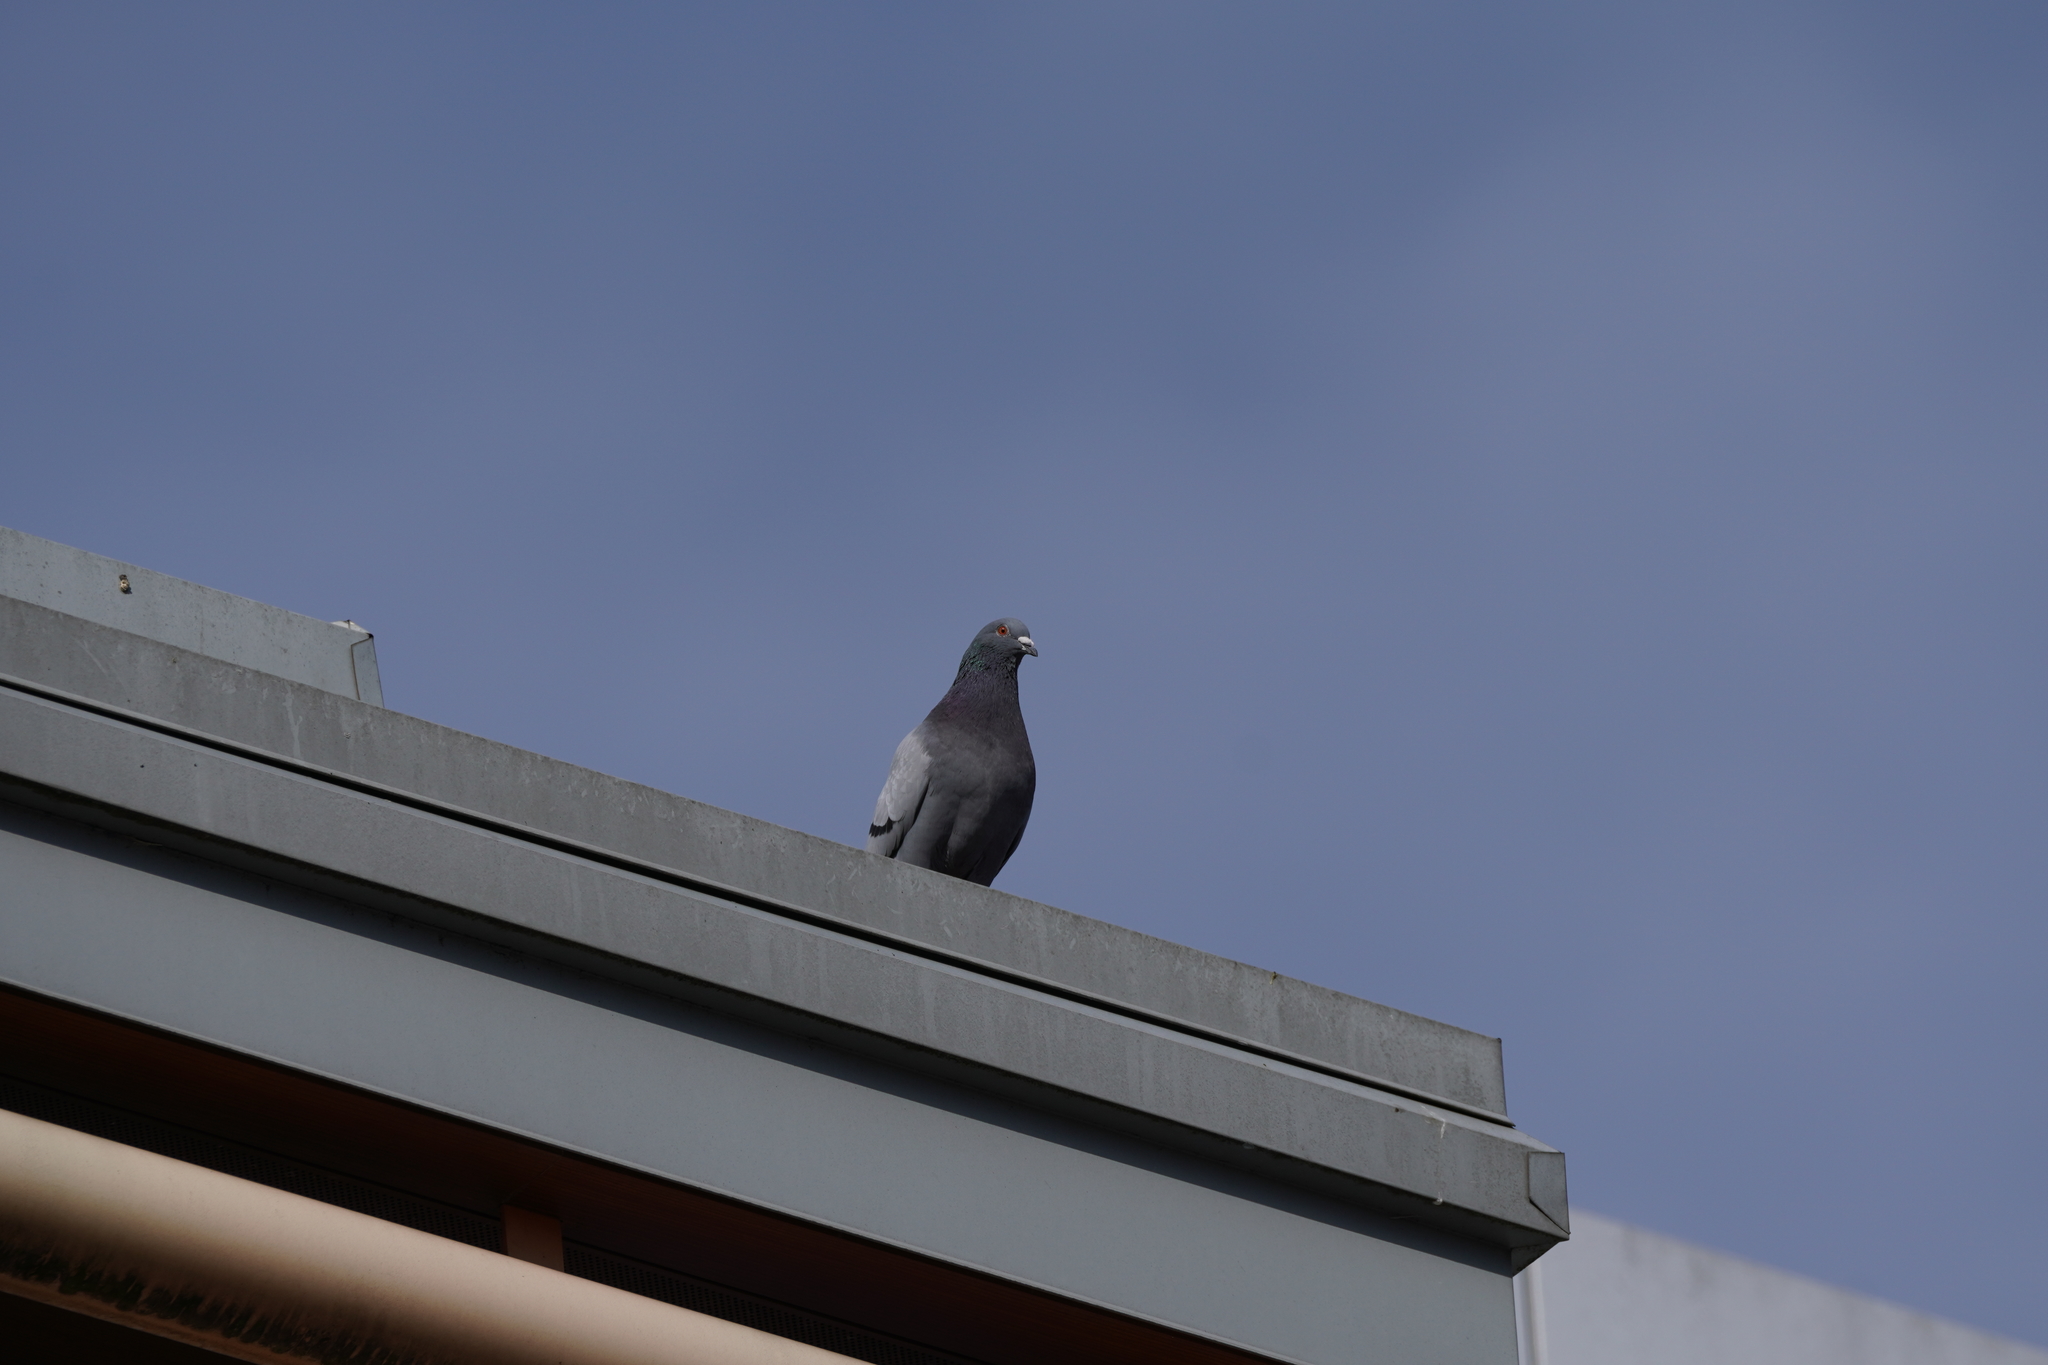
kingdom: Animalia
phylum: Chordata
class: Aves
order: Columbiformes
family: Columbidae
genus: Columba
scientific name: Columba livia
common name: Rock pigeon
